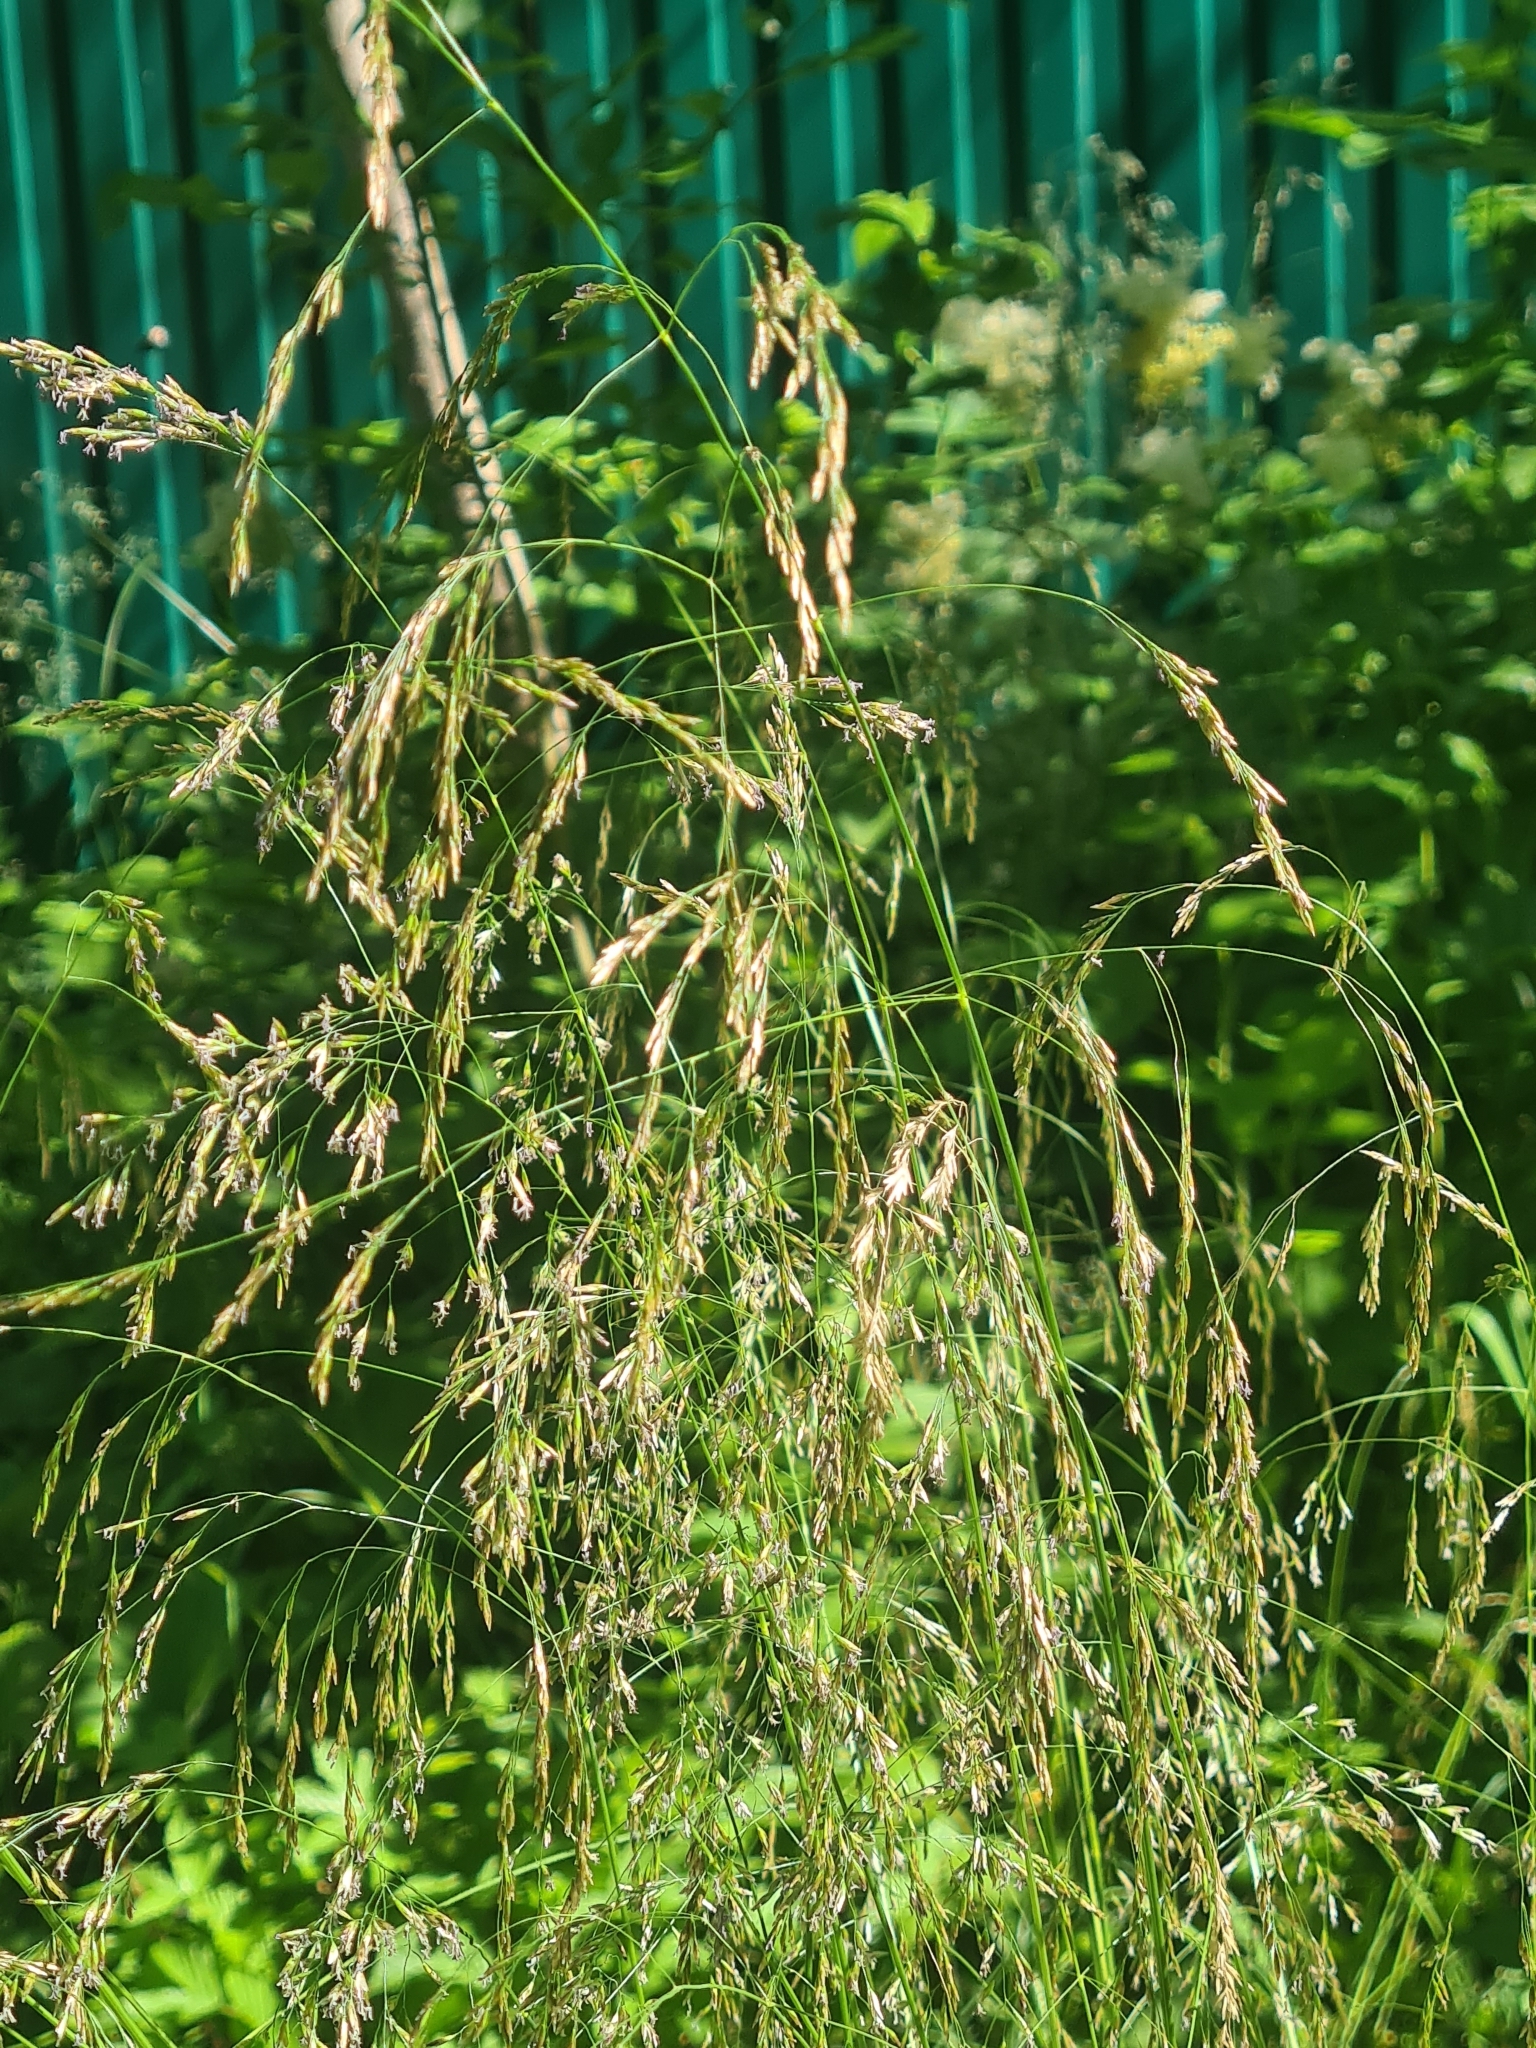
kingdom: Plantae
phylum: Tracheophyta
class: Liliopsida
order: Poales
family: Poaceae
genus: Deschampsia
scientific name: Deschampsia cespitosa
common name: Tufted hair-grass
